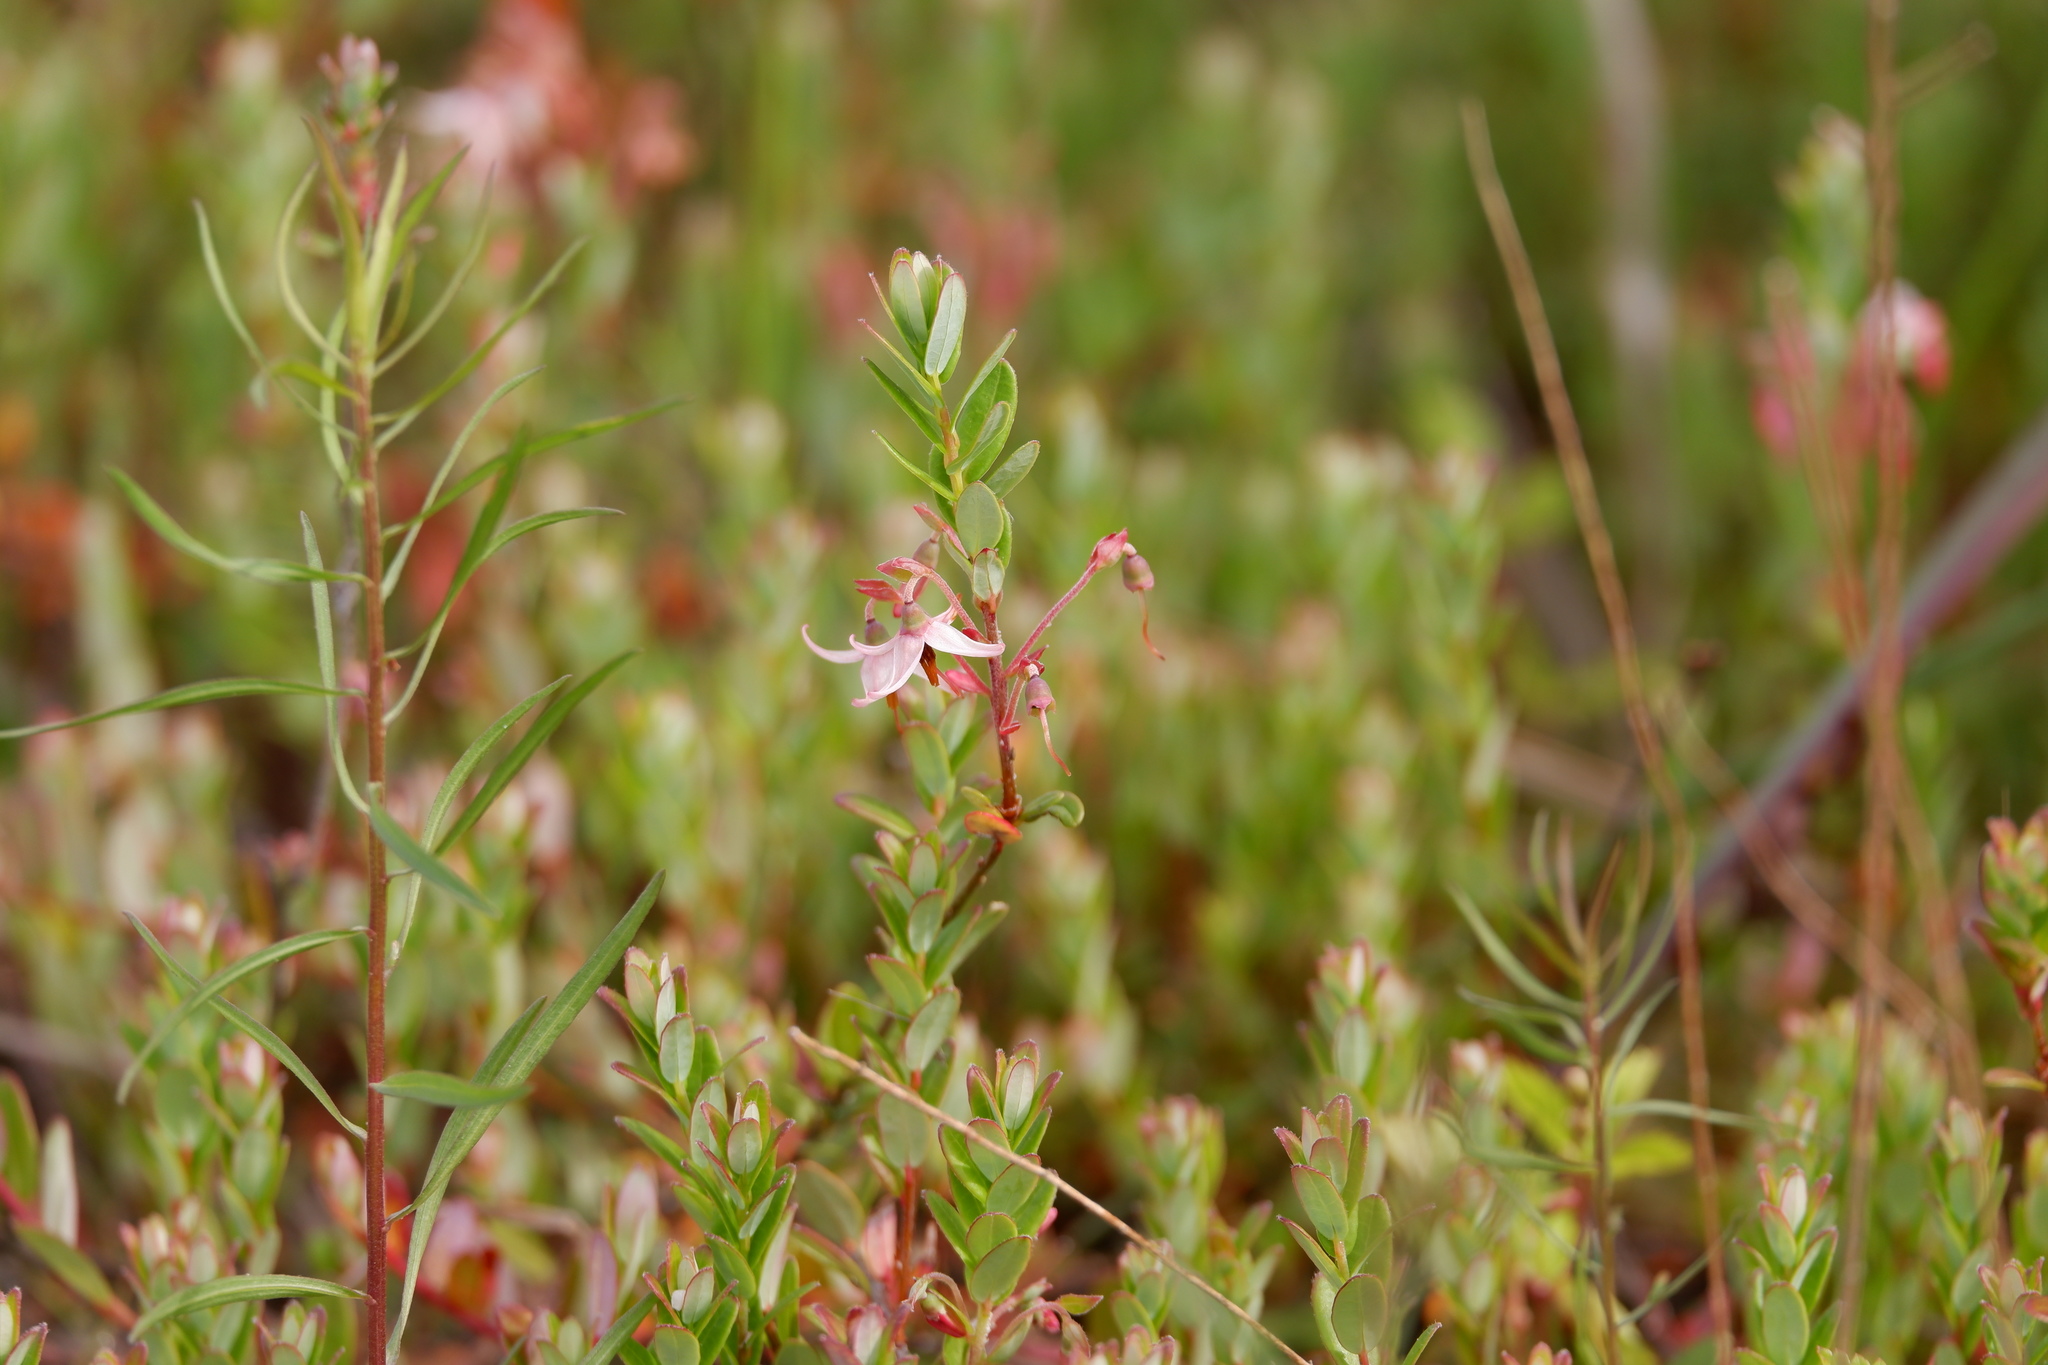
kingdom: Plantae
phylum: Tracheophyta
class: Magnoliopsida
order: Ericales
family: Ericaceae
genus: Vaccinium
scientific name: Vaccinium macrocarpon
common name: American cranberry
